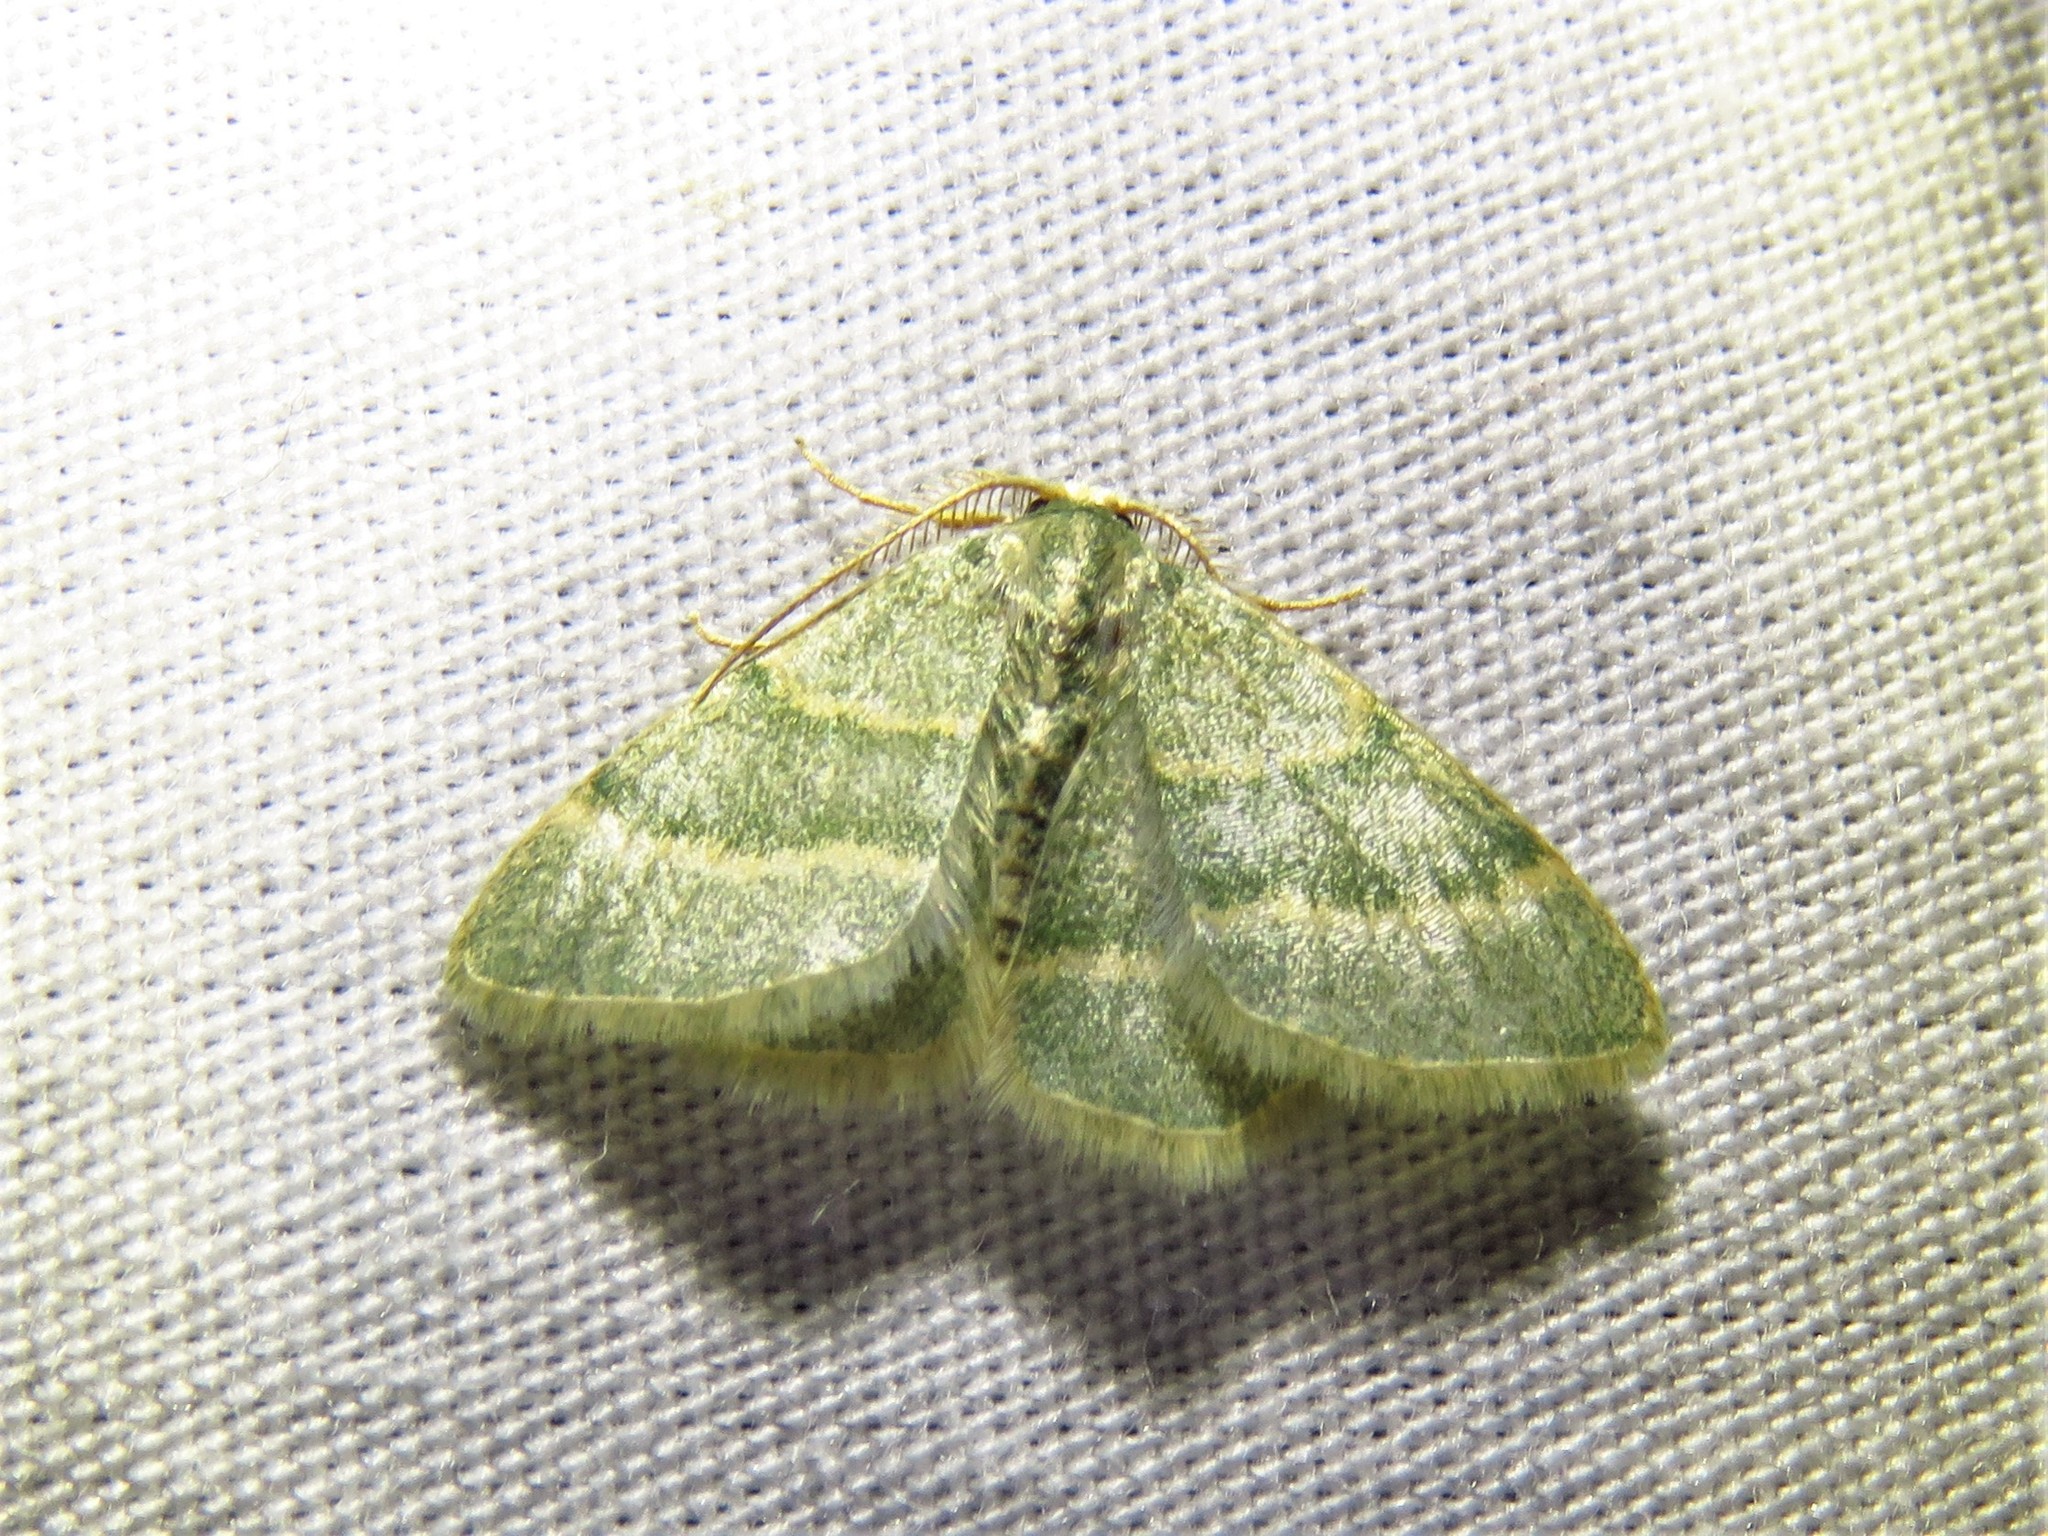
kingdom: Animalia
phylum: Arthropoda
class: Insecta
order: Lepidoptera
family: Geometridae
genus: Chlorochlamys
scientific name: Chlorochlamys chloroleucaria
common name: Blackberry looper
